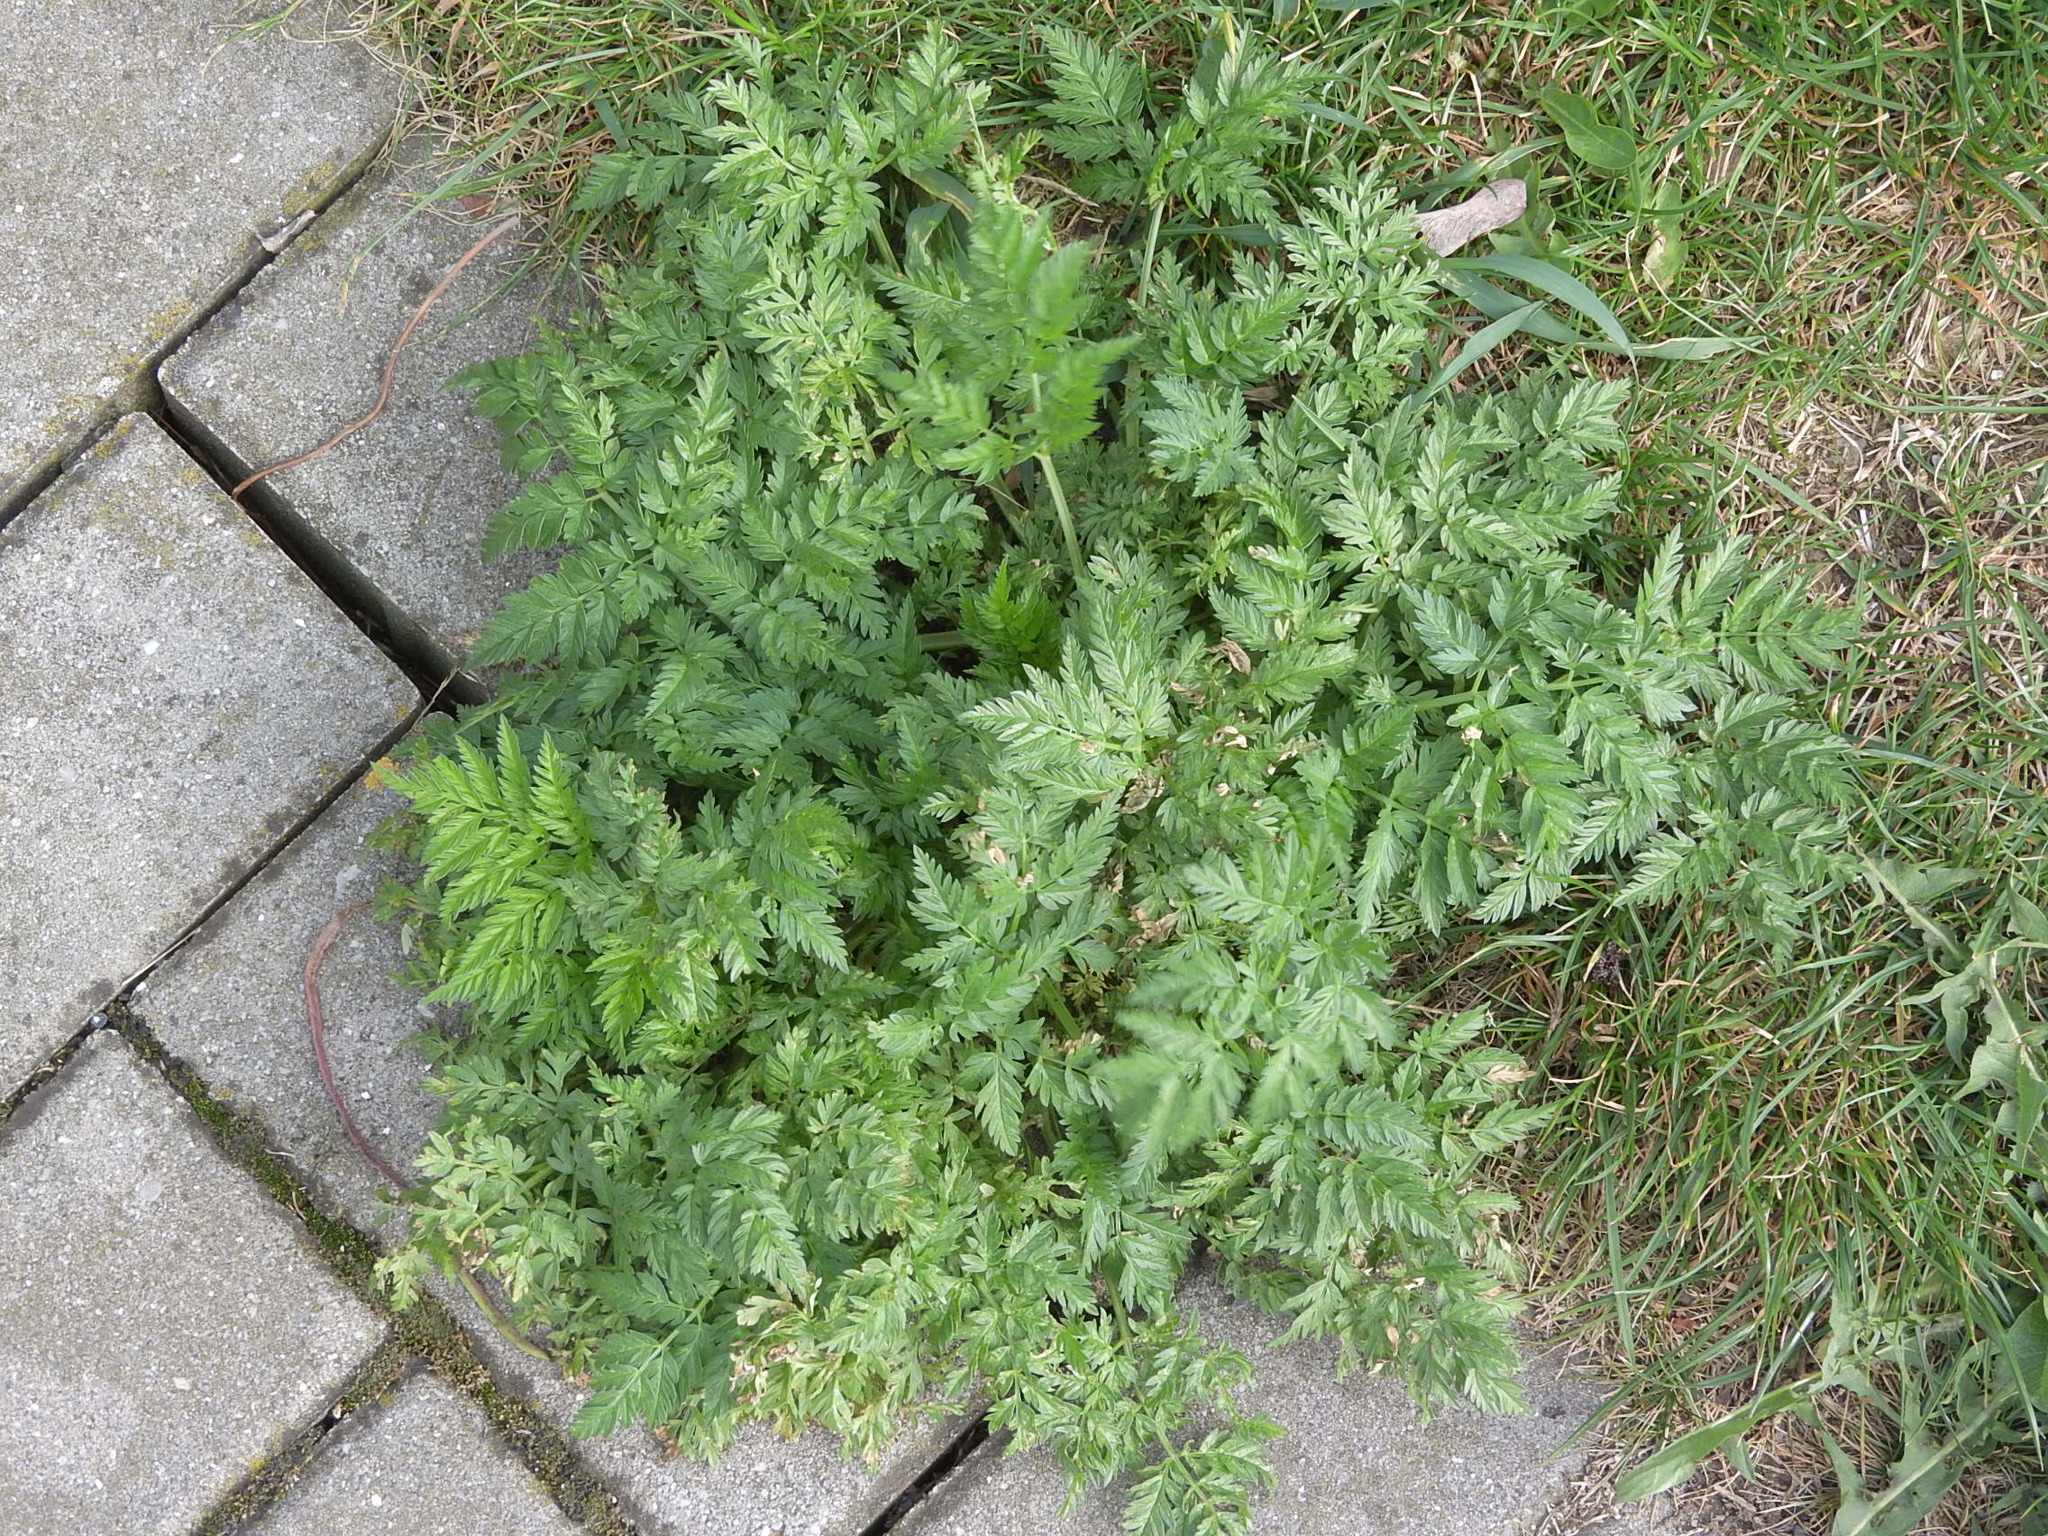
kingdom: Plantae
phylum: Tracheophyta
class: Magnoliopsida
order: Apiales
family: Apiaceae
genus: Anthriscus
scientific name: Anthriscus sylvestris
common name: Cow parsley
